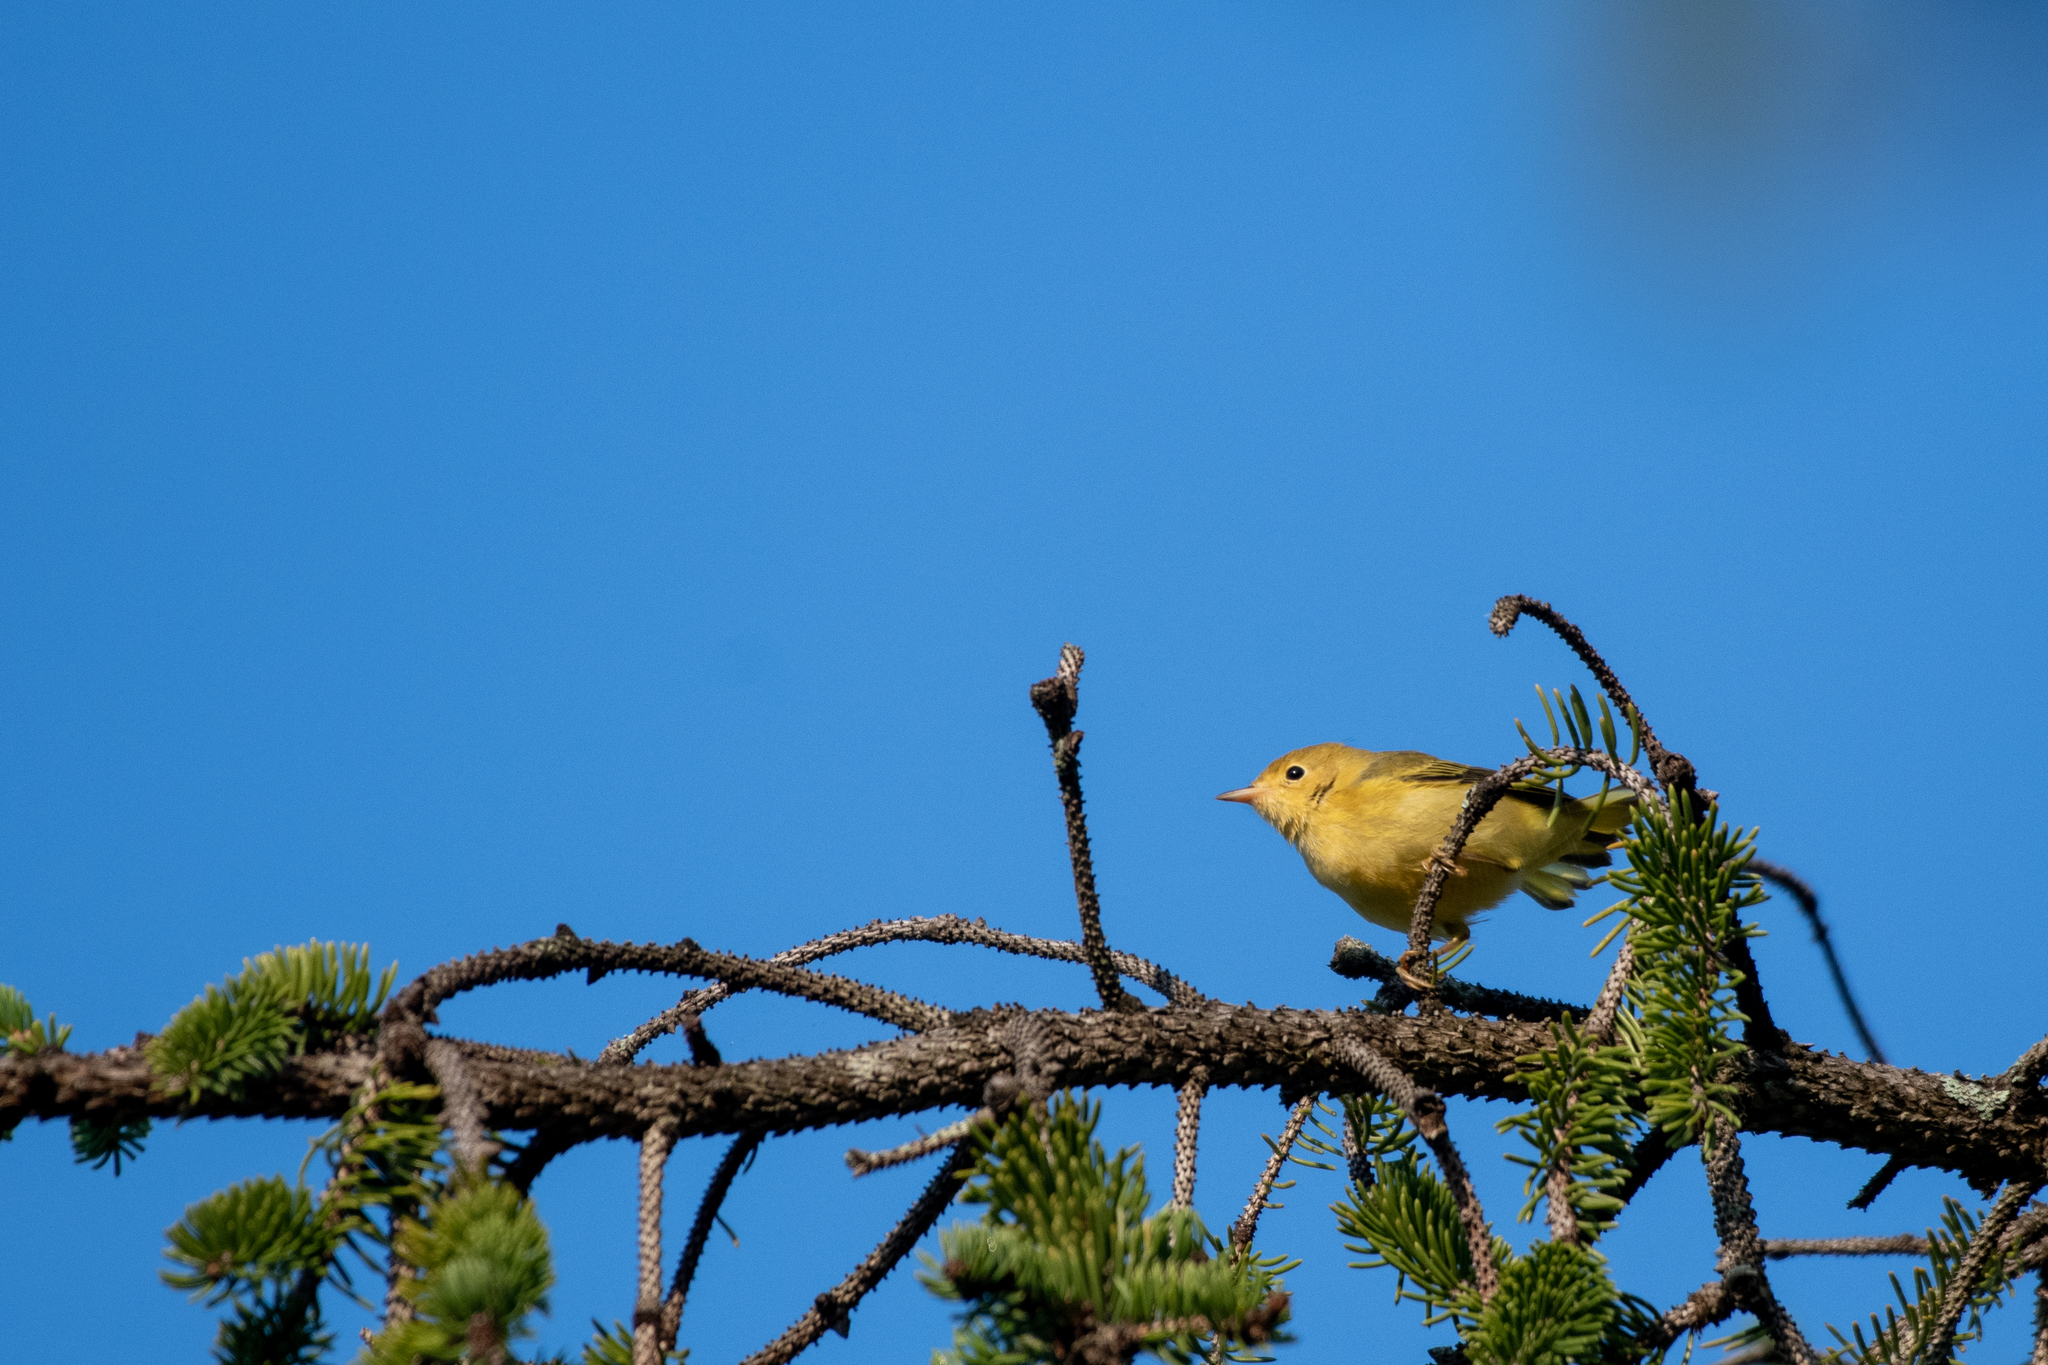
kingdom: Animalia
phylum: Chordata
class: Aves
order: Passeriformes
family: Parulidae
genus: Setophaga
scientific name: Setophaga petechia
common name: Yellow warbler
